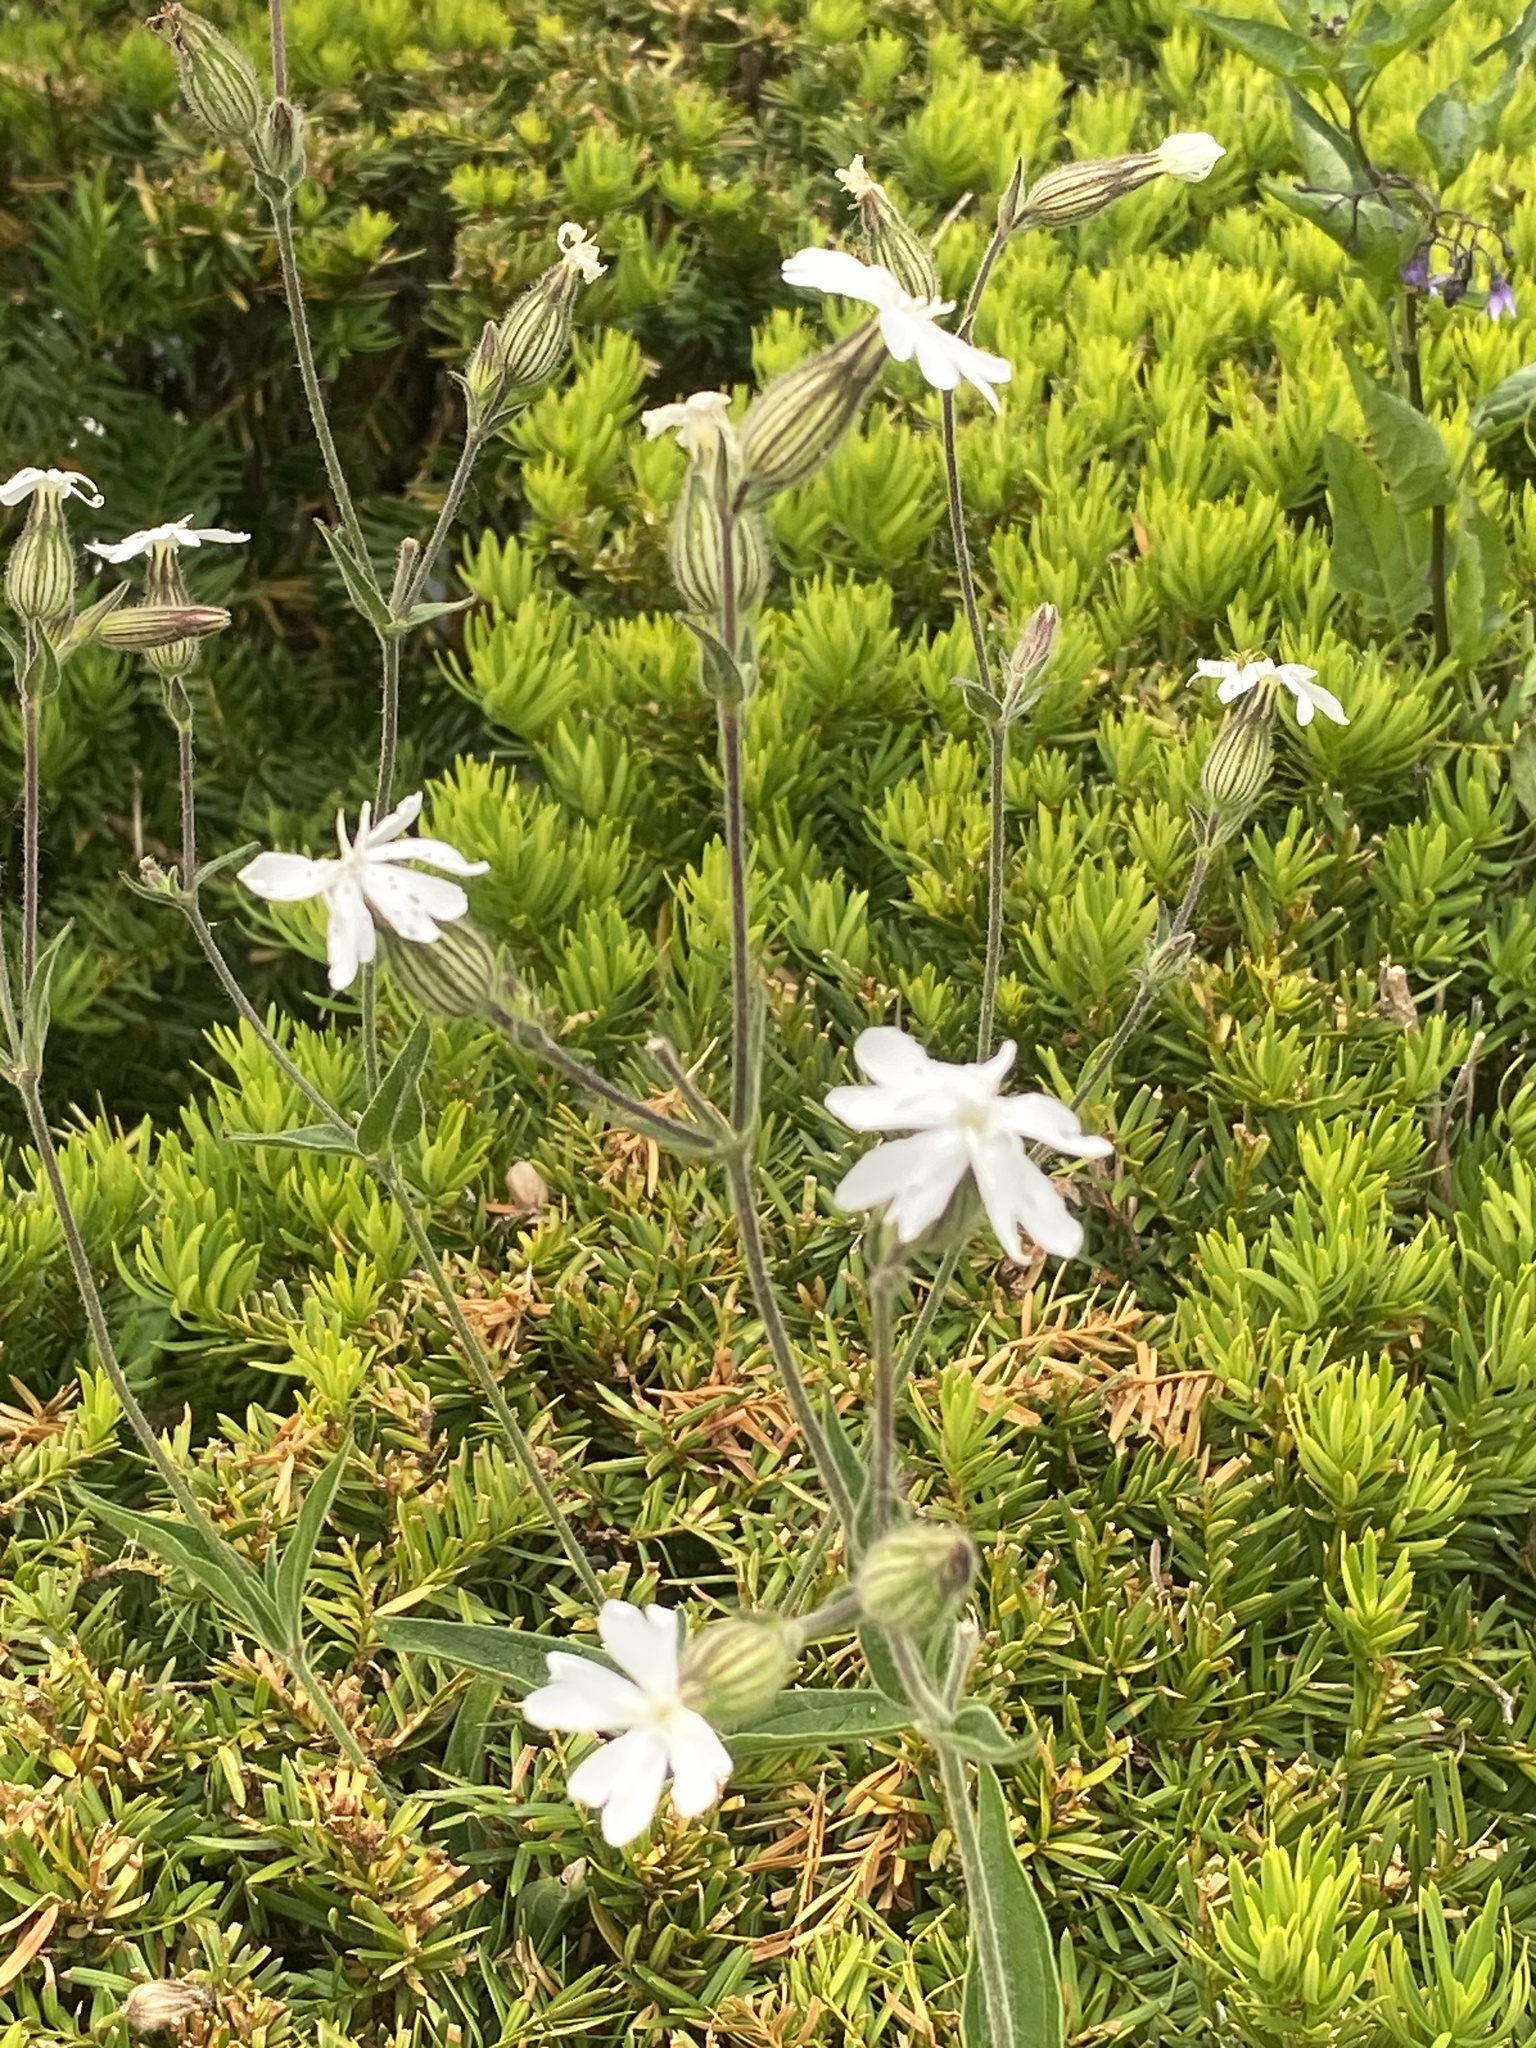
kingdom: Plantae
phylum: Tracheophyta
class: Magnoliopsida
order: Caryophyllales
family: Caryophyllaceae
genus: Silene
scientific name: Silene latifolia
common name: White campion
